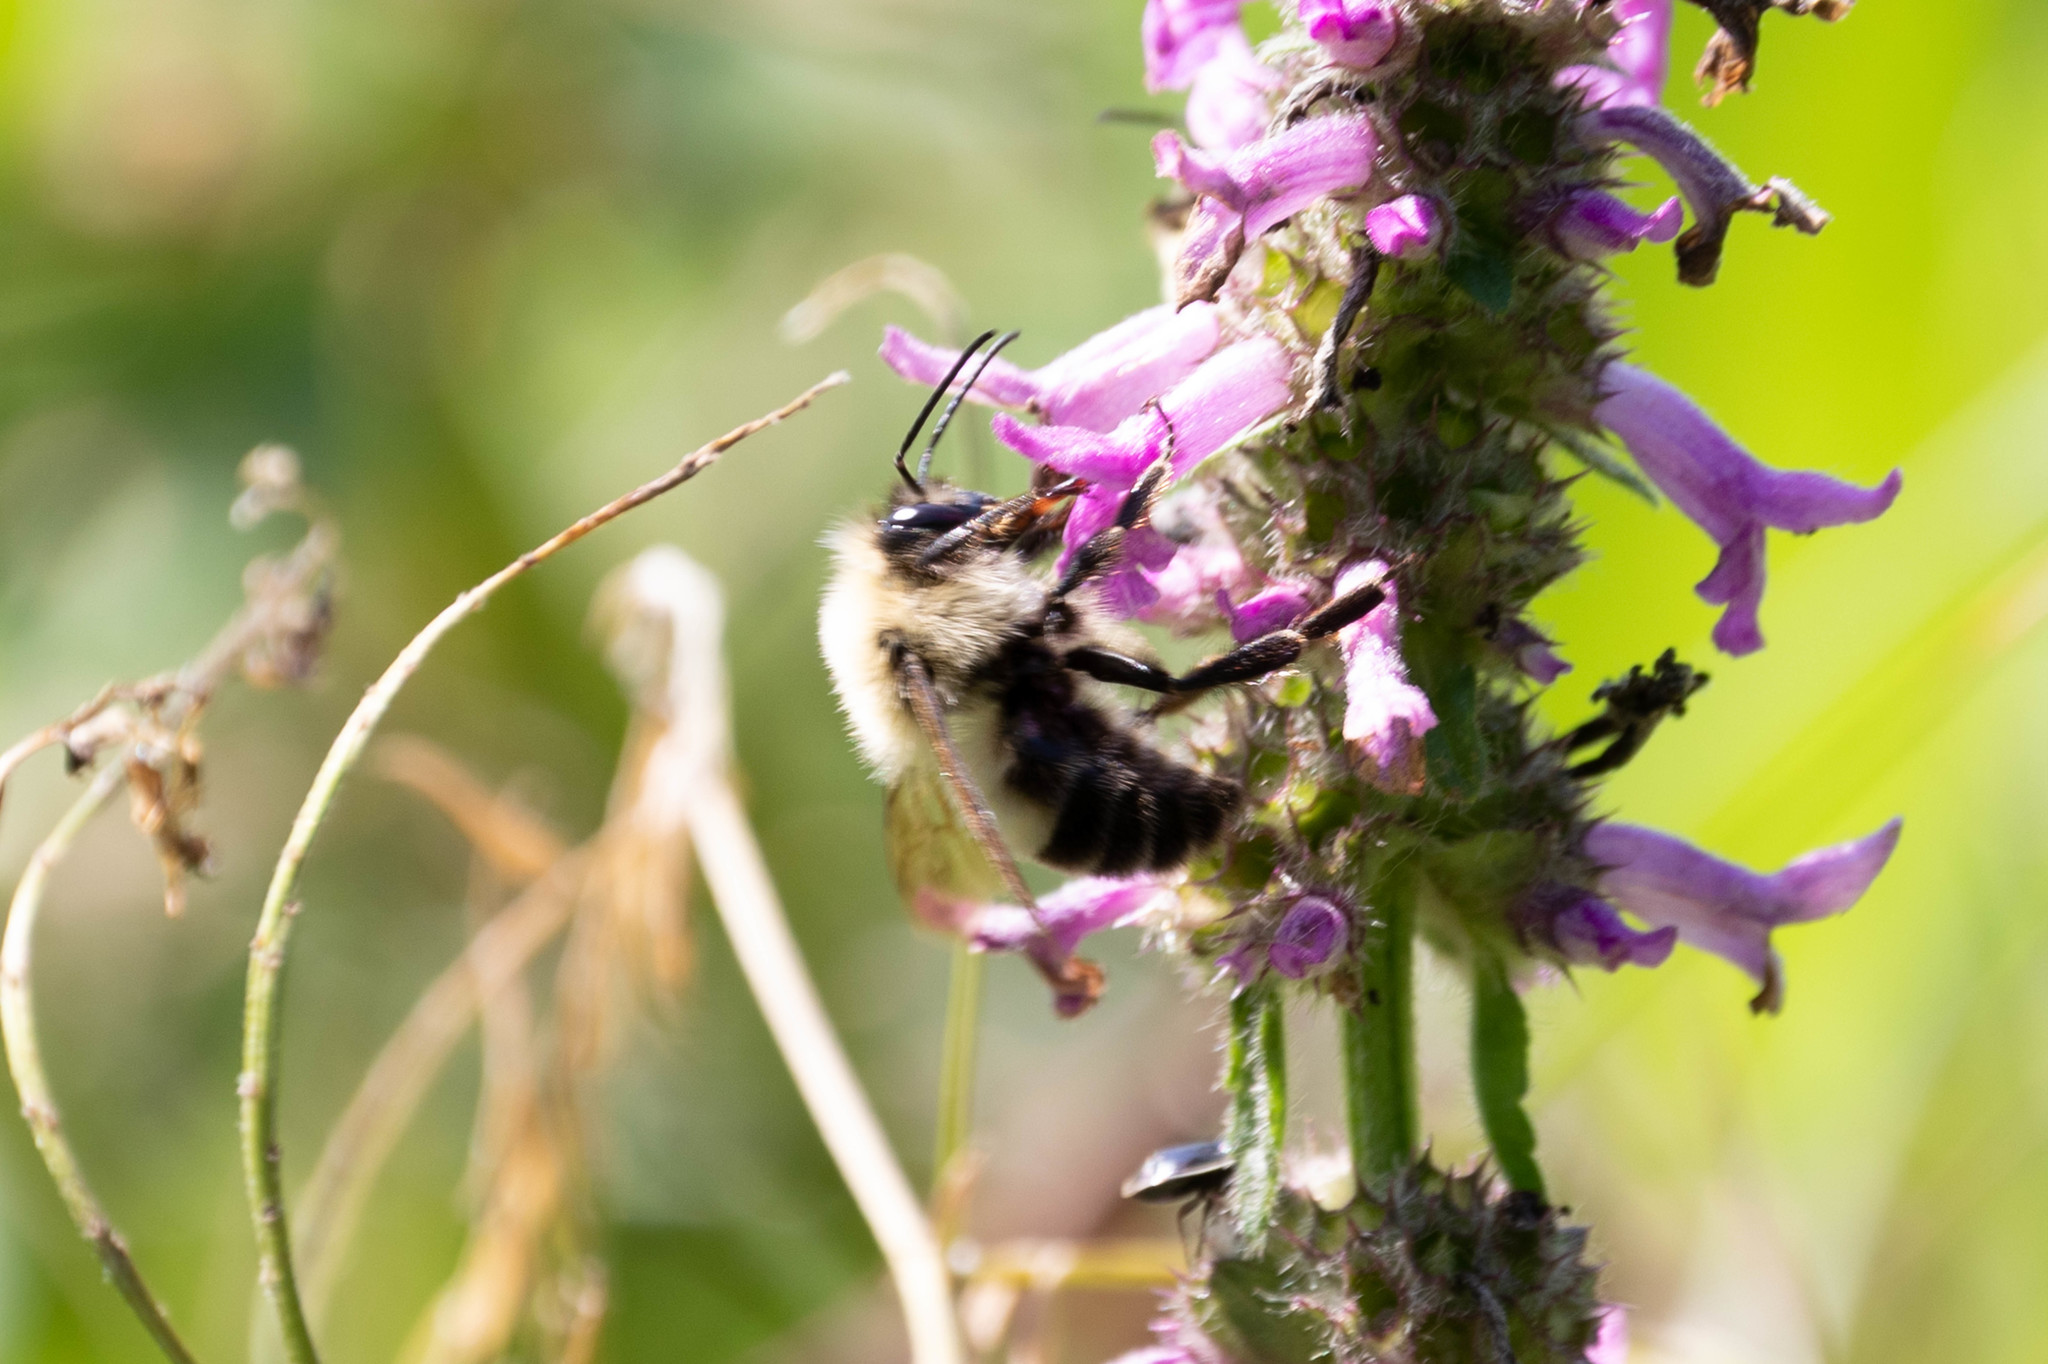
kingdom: Animalia
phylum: Arthropoda
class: Insecta
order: Hymenoptera
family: Apidae
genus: Bombus
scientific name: Bombus bimaculatus
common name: Two-spotted bumble bee
